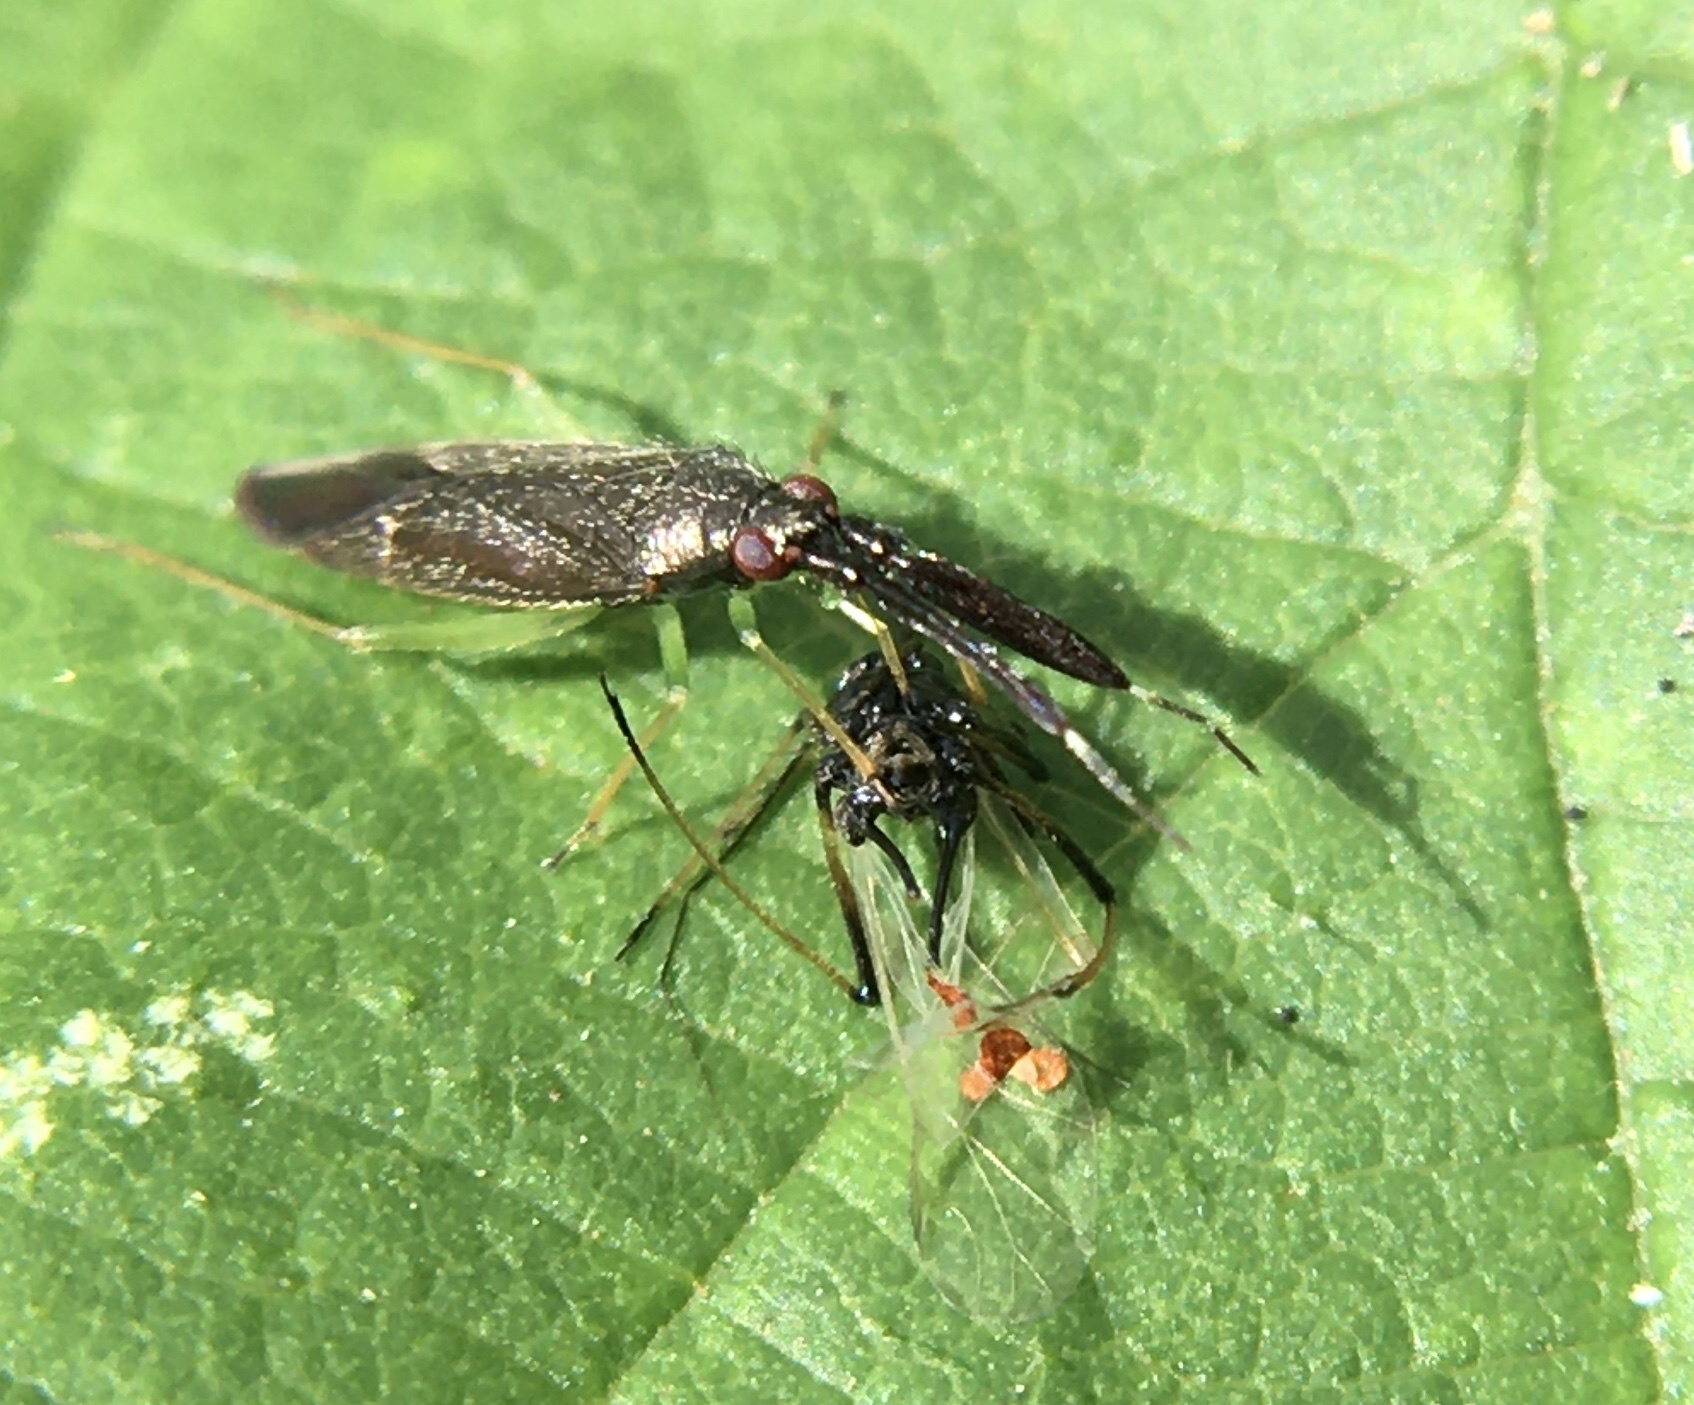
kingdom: Animalia
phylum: Arthropoda
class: Insecta
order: Hemiptera
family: Miridae
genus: Heterotoma
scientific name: Heterotoma planicornis
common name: Plant bug
